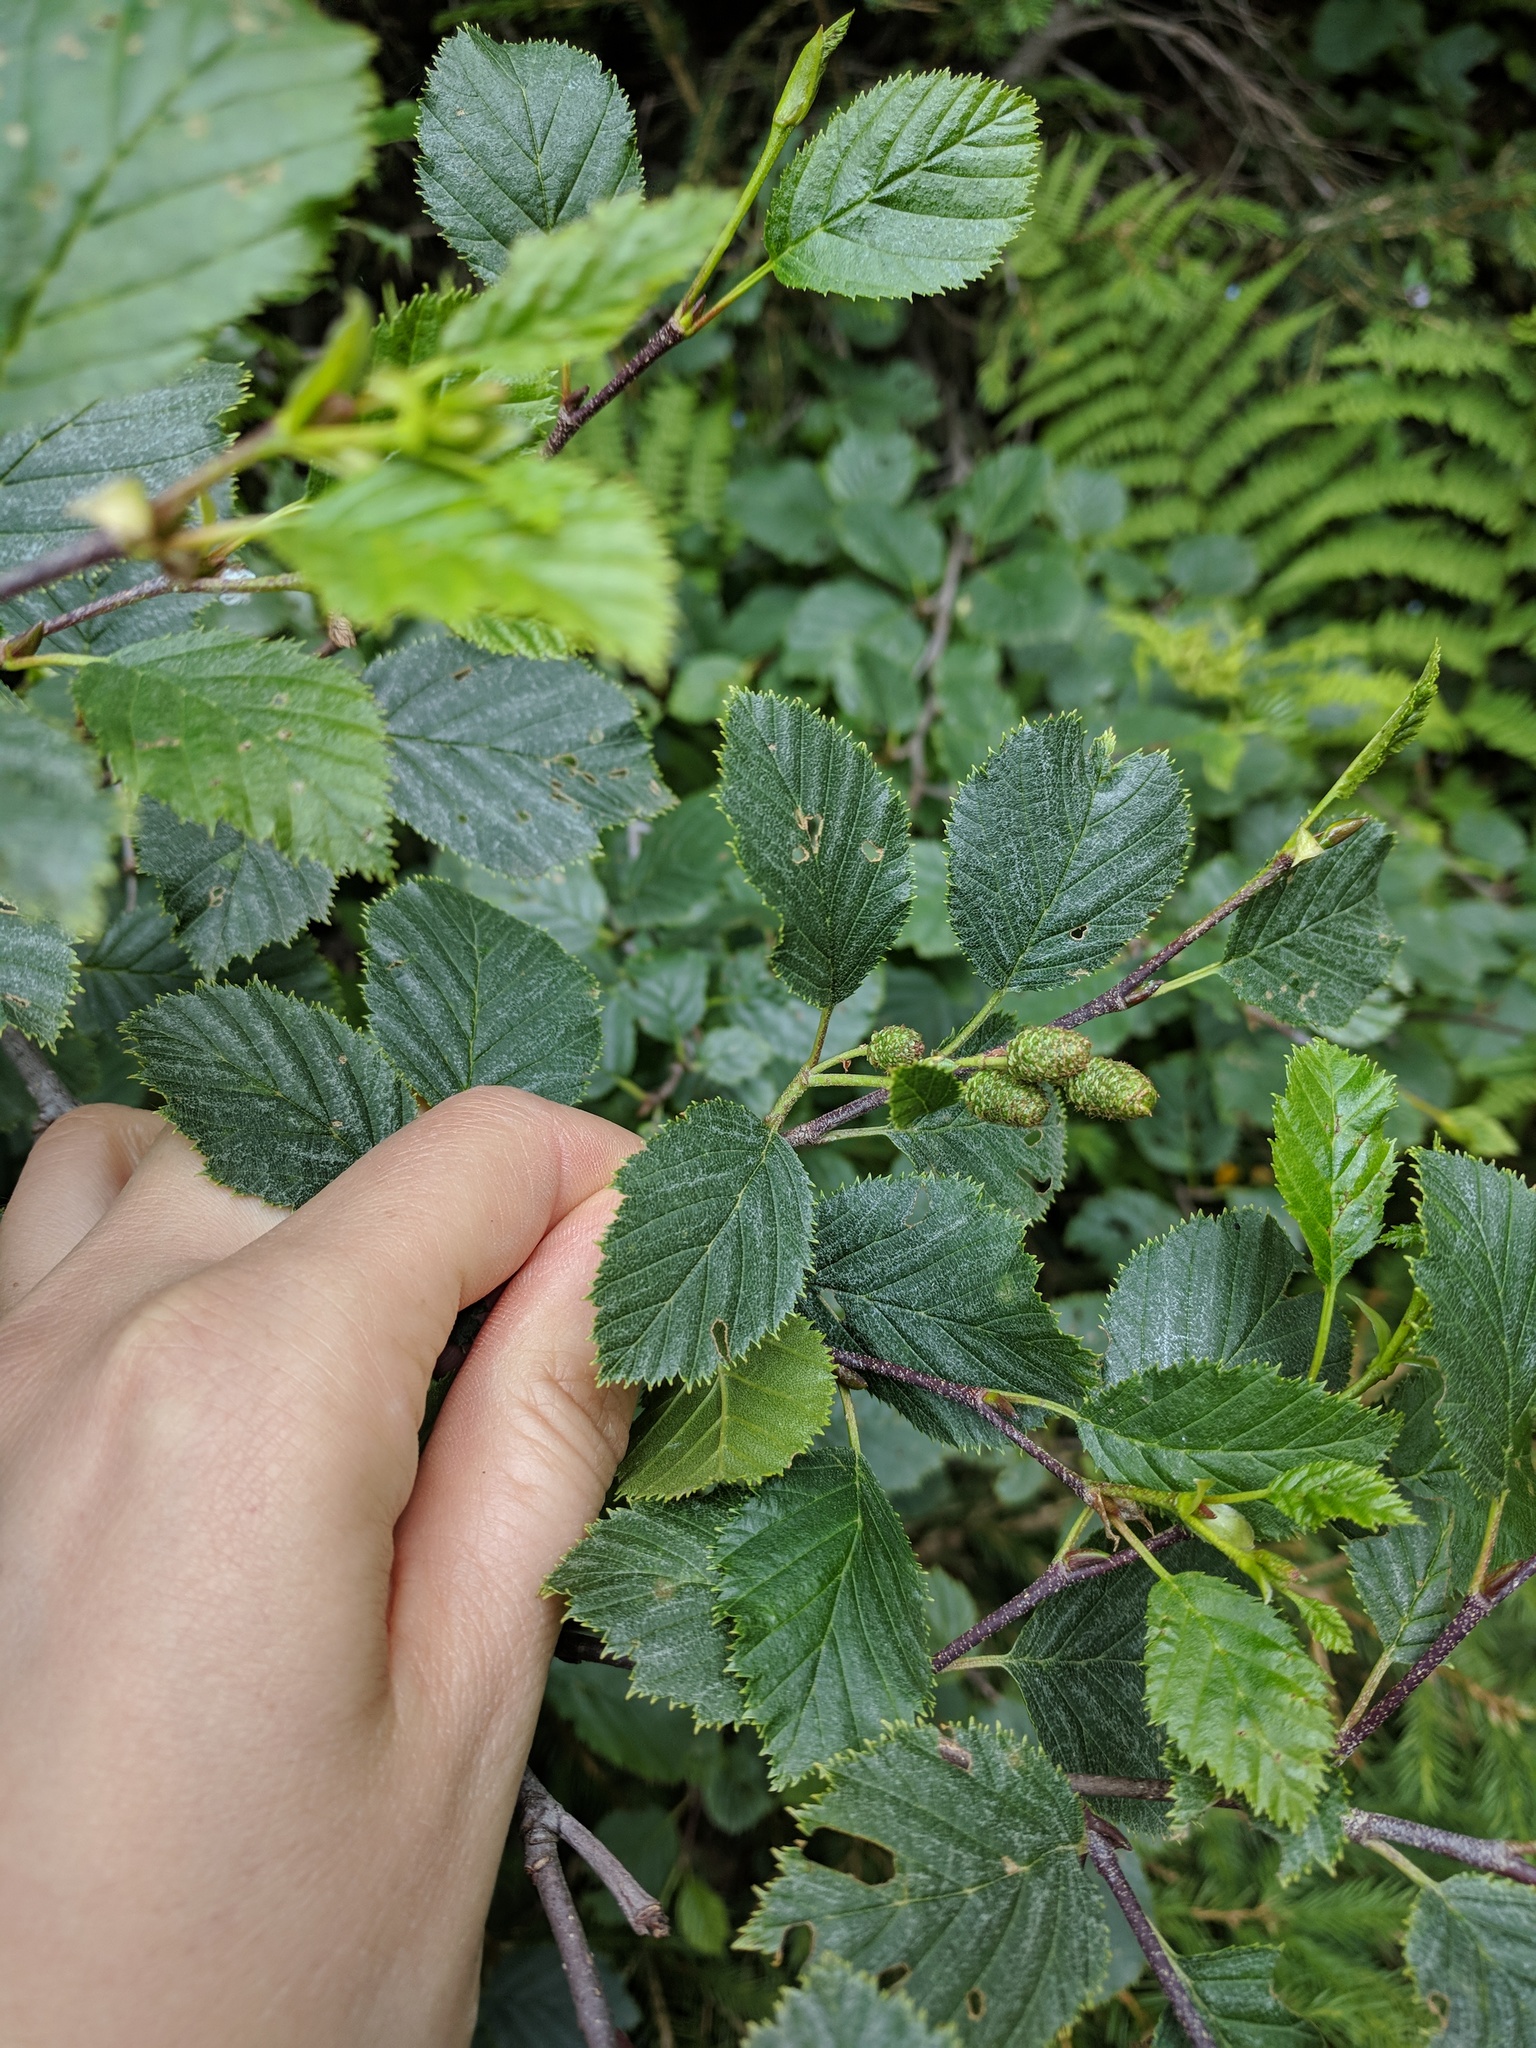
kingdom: Plantae
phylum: Tracheophyta
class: Magnoliopsida
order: Fagales
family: Betulaceae
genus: Alnus
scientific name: Alnus alnobetula
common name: Green alder
